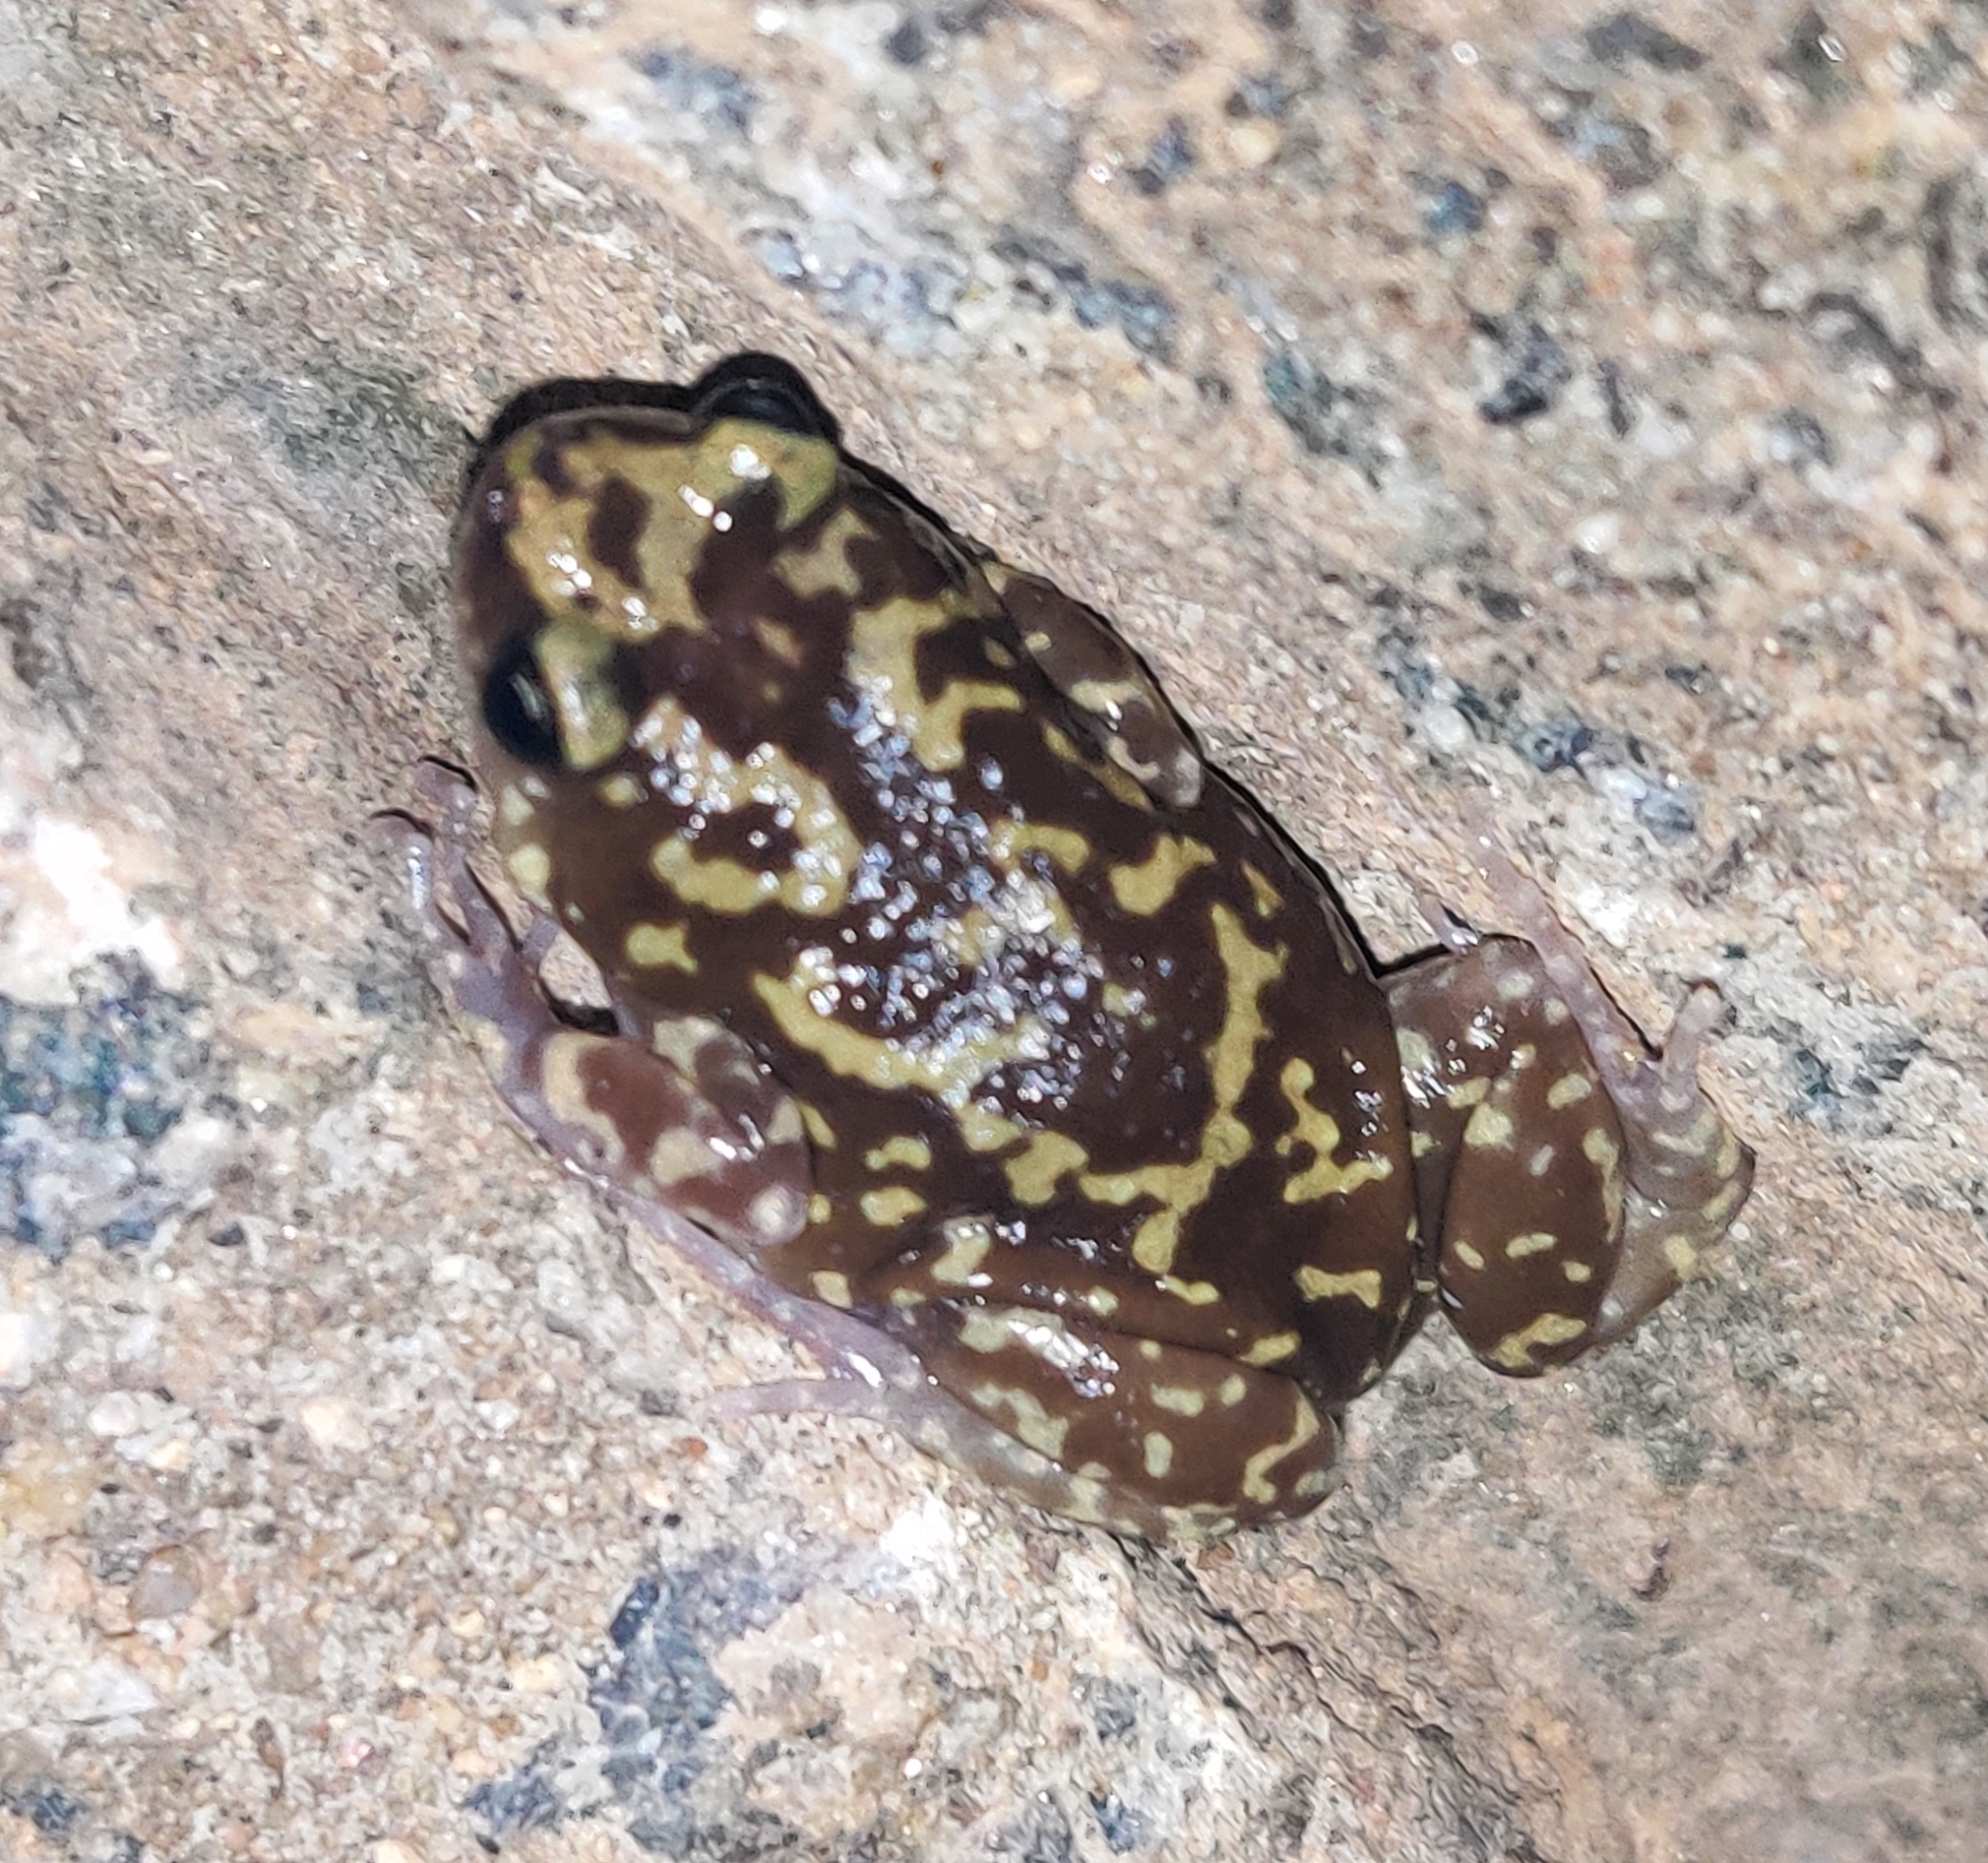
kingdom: Animalia
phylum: Chordata
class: Amphibia
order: Anura
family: Microhylidae
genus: Uperodon
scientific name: Uperodon variegatus
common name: Eluru dot frog
